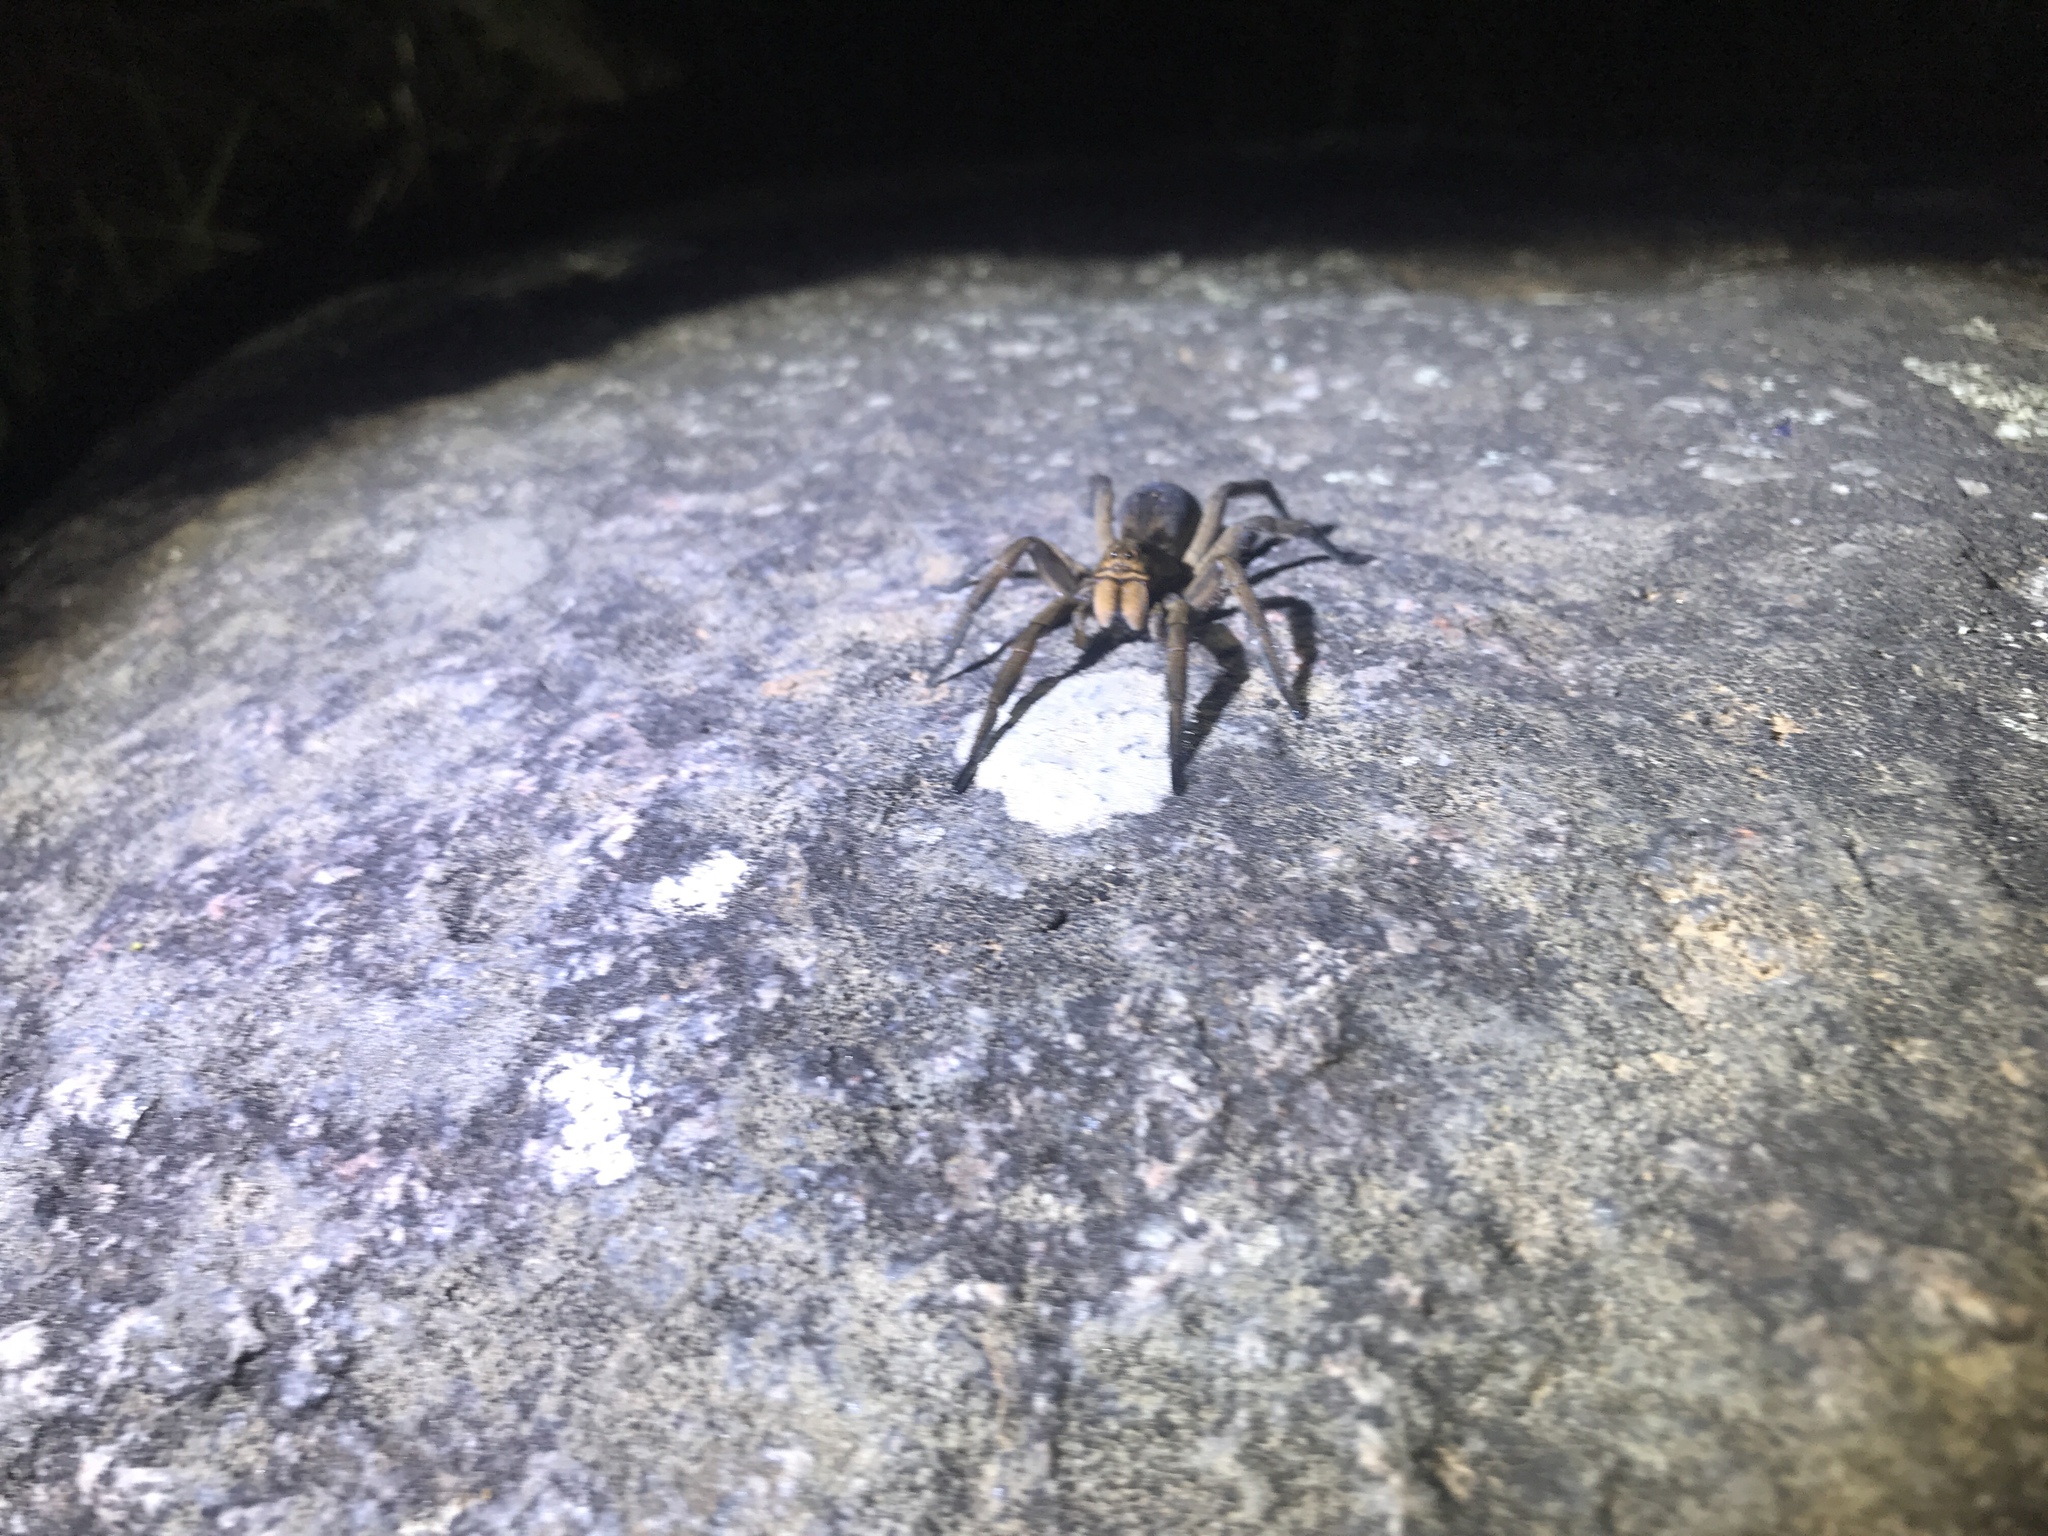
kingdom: Animalia
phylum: Arthropoda
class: Arachnida
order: Araneae
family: Lycosidae
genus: Lycosa
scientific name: Lycosa erythrognatha
